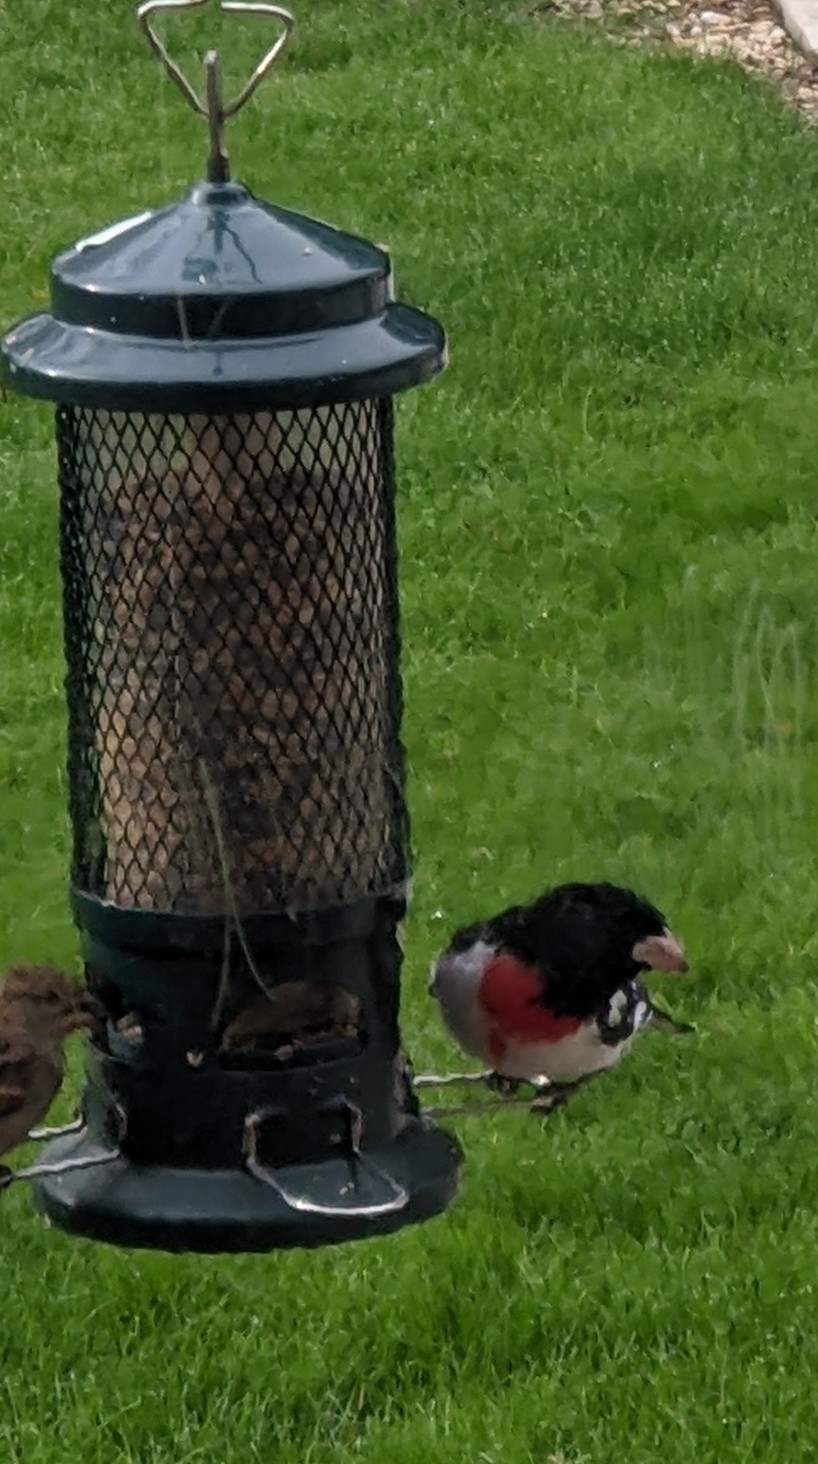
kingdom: Animalia
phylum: Chordata
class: Aves
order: Passeriformes
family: Cardinalidae
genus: Pheucticus
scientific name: Pheucticus ludovicianus
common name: Rose-breasted grosbeak
